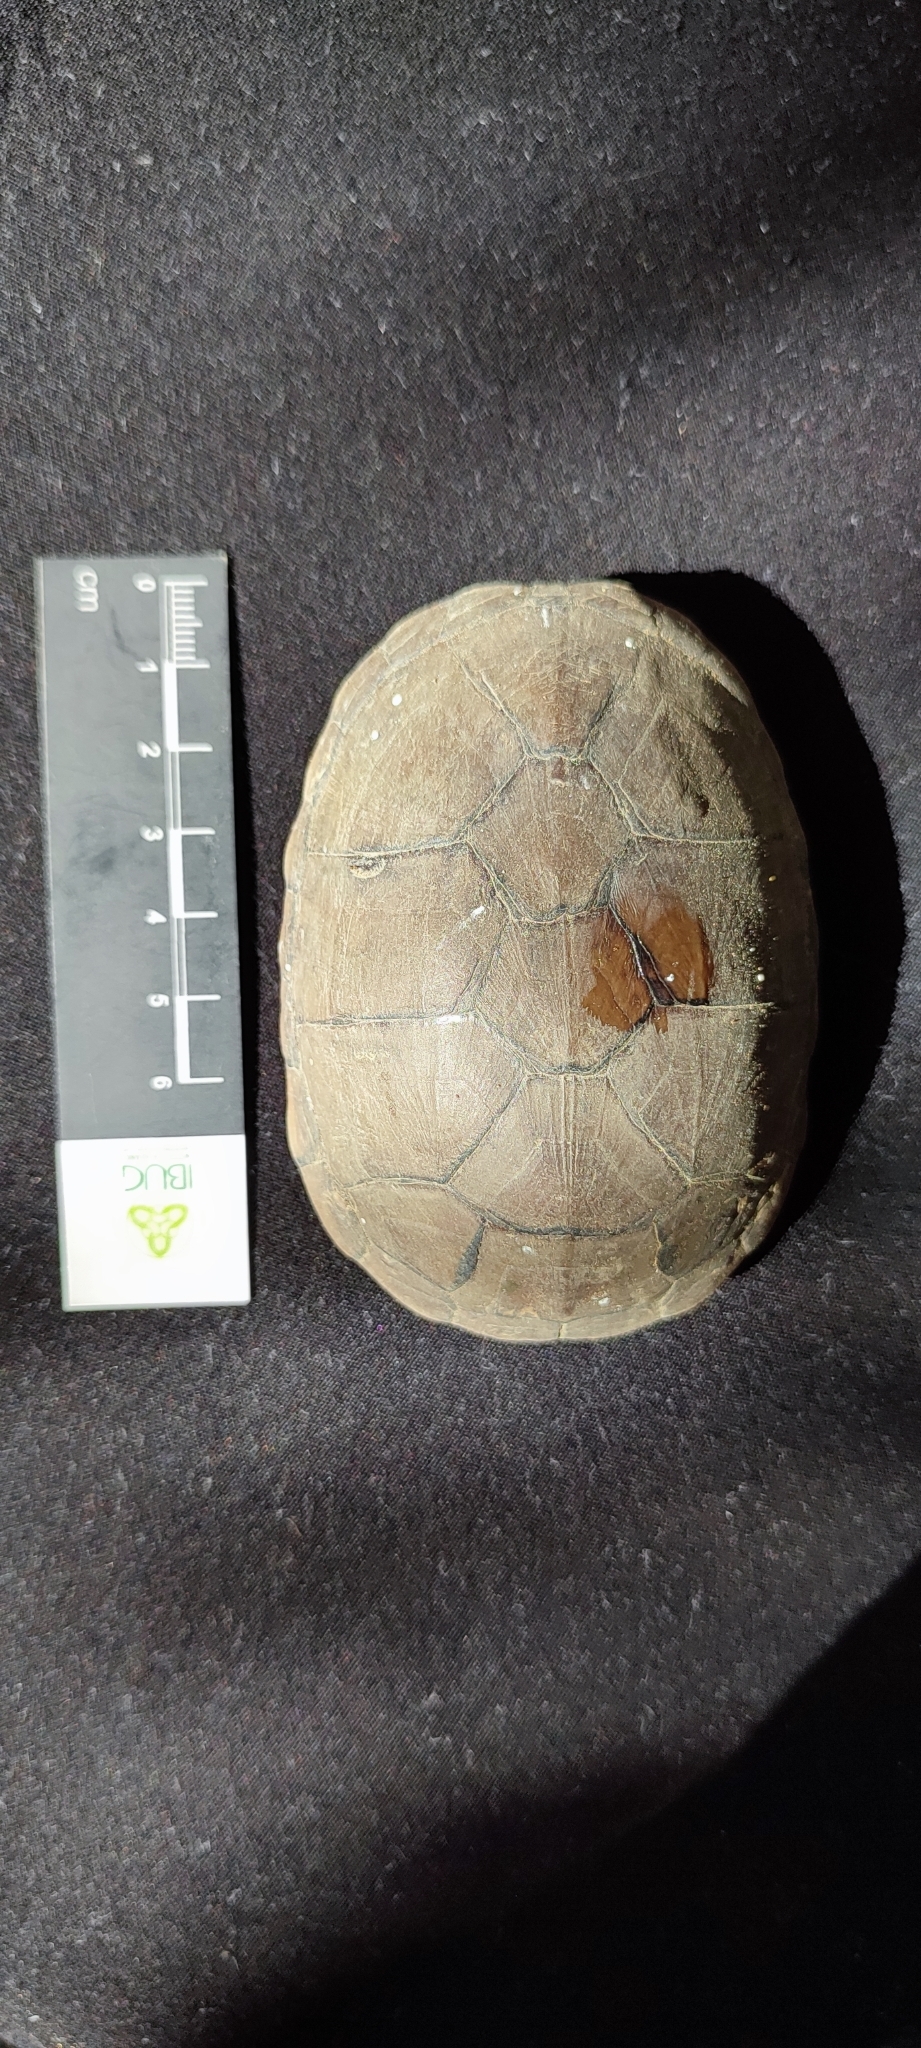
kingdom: Animalia
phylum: Chordata
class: Testudines
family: Kinosternidae
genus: Kinosternon
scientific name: Kinosternon chimalhuaca
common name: Jalisco mud turtle
